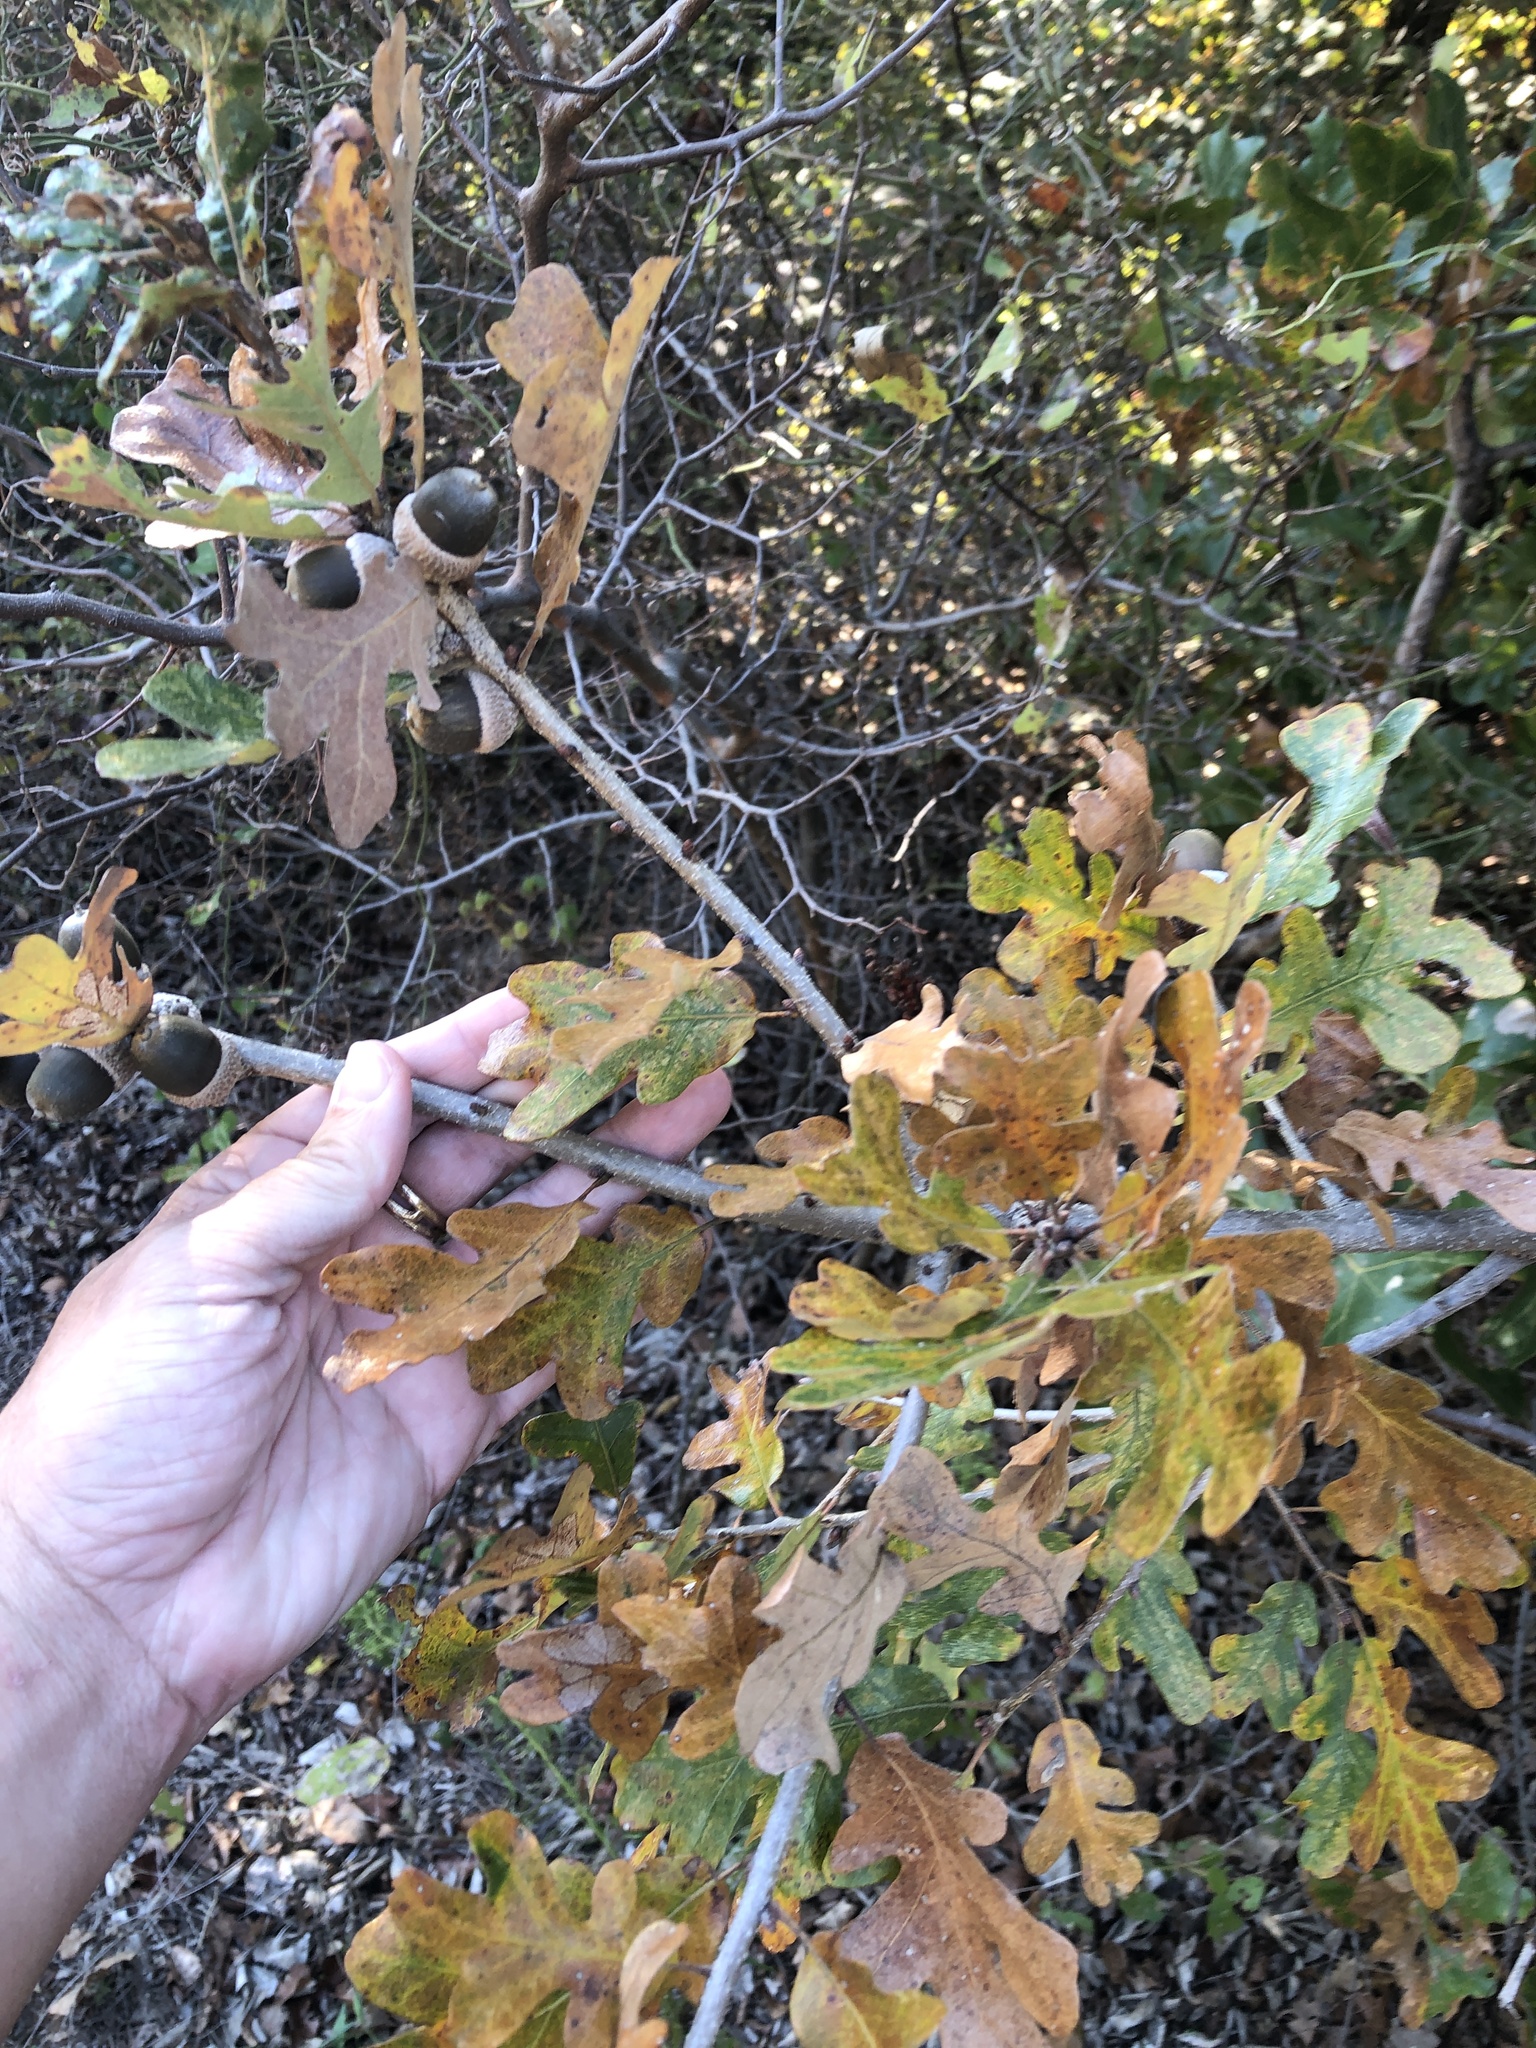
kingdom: Plantae
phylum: Tracheophyta
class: Magnoliopsida
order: Fagales
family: Fagaceae
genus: Quercus
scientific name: Quercus stellata
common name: Post oak
